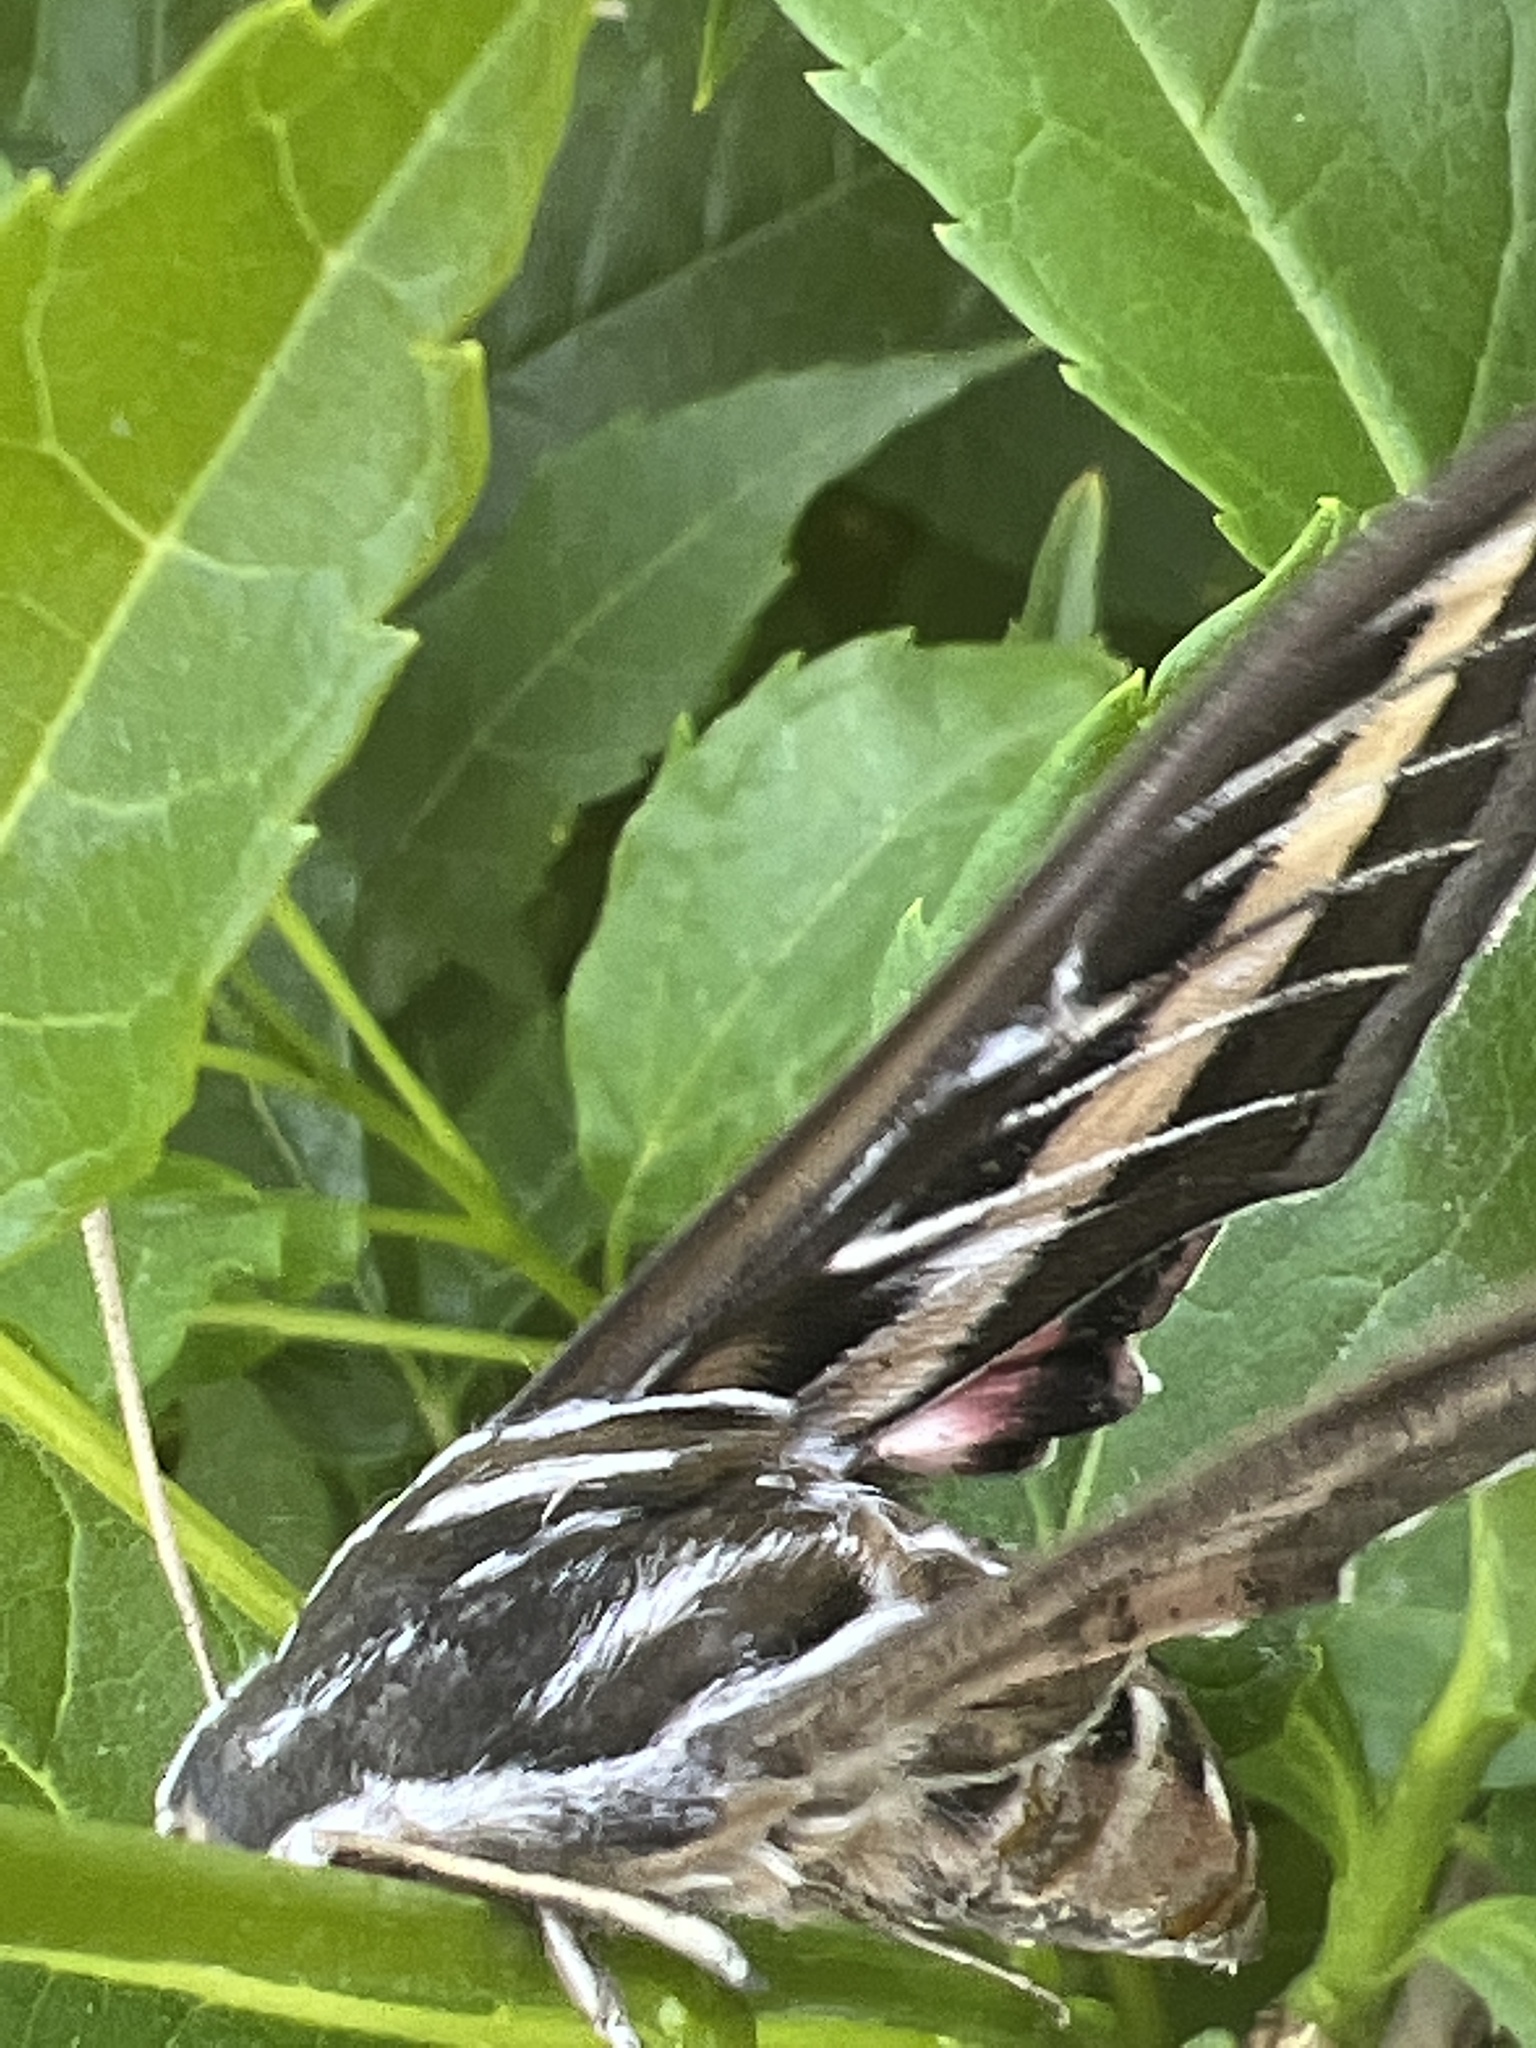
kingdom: Animalia
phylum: Arthropoda
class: Insecta
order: Lepidoptera
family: Sphingidae
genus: Hyles
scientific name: Hyles lineata
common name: White-lined sphinx
